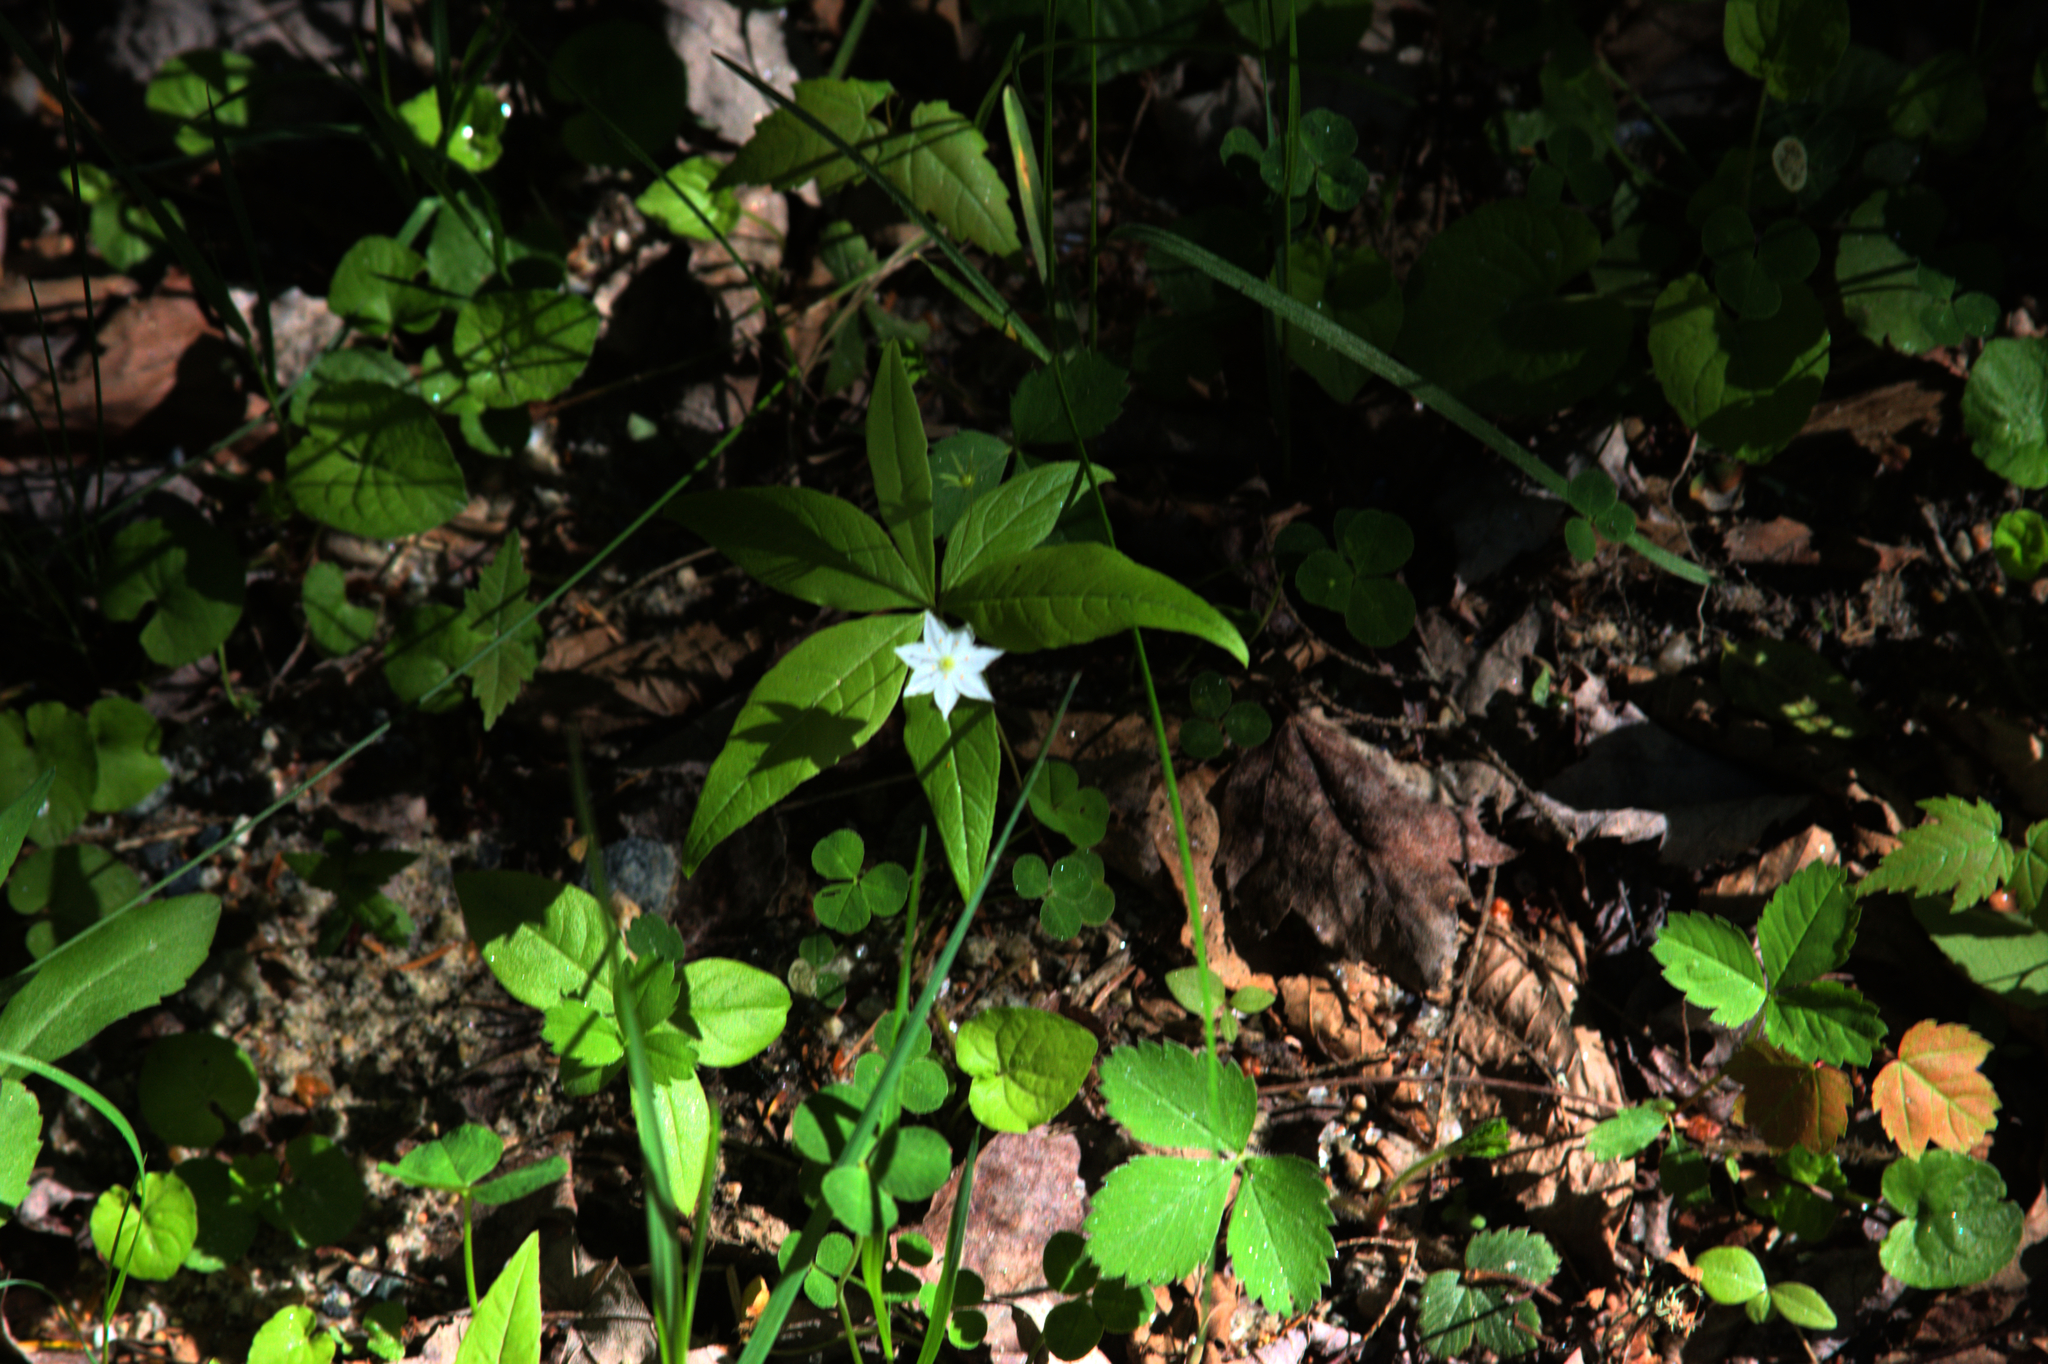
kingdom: Plantae
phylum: Tracheophyta
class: Magnoliopsida
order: Ericales
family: Primulaceae
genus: Lysimachia
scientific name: Lysimachia borealis
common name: American starflower
